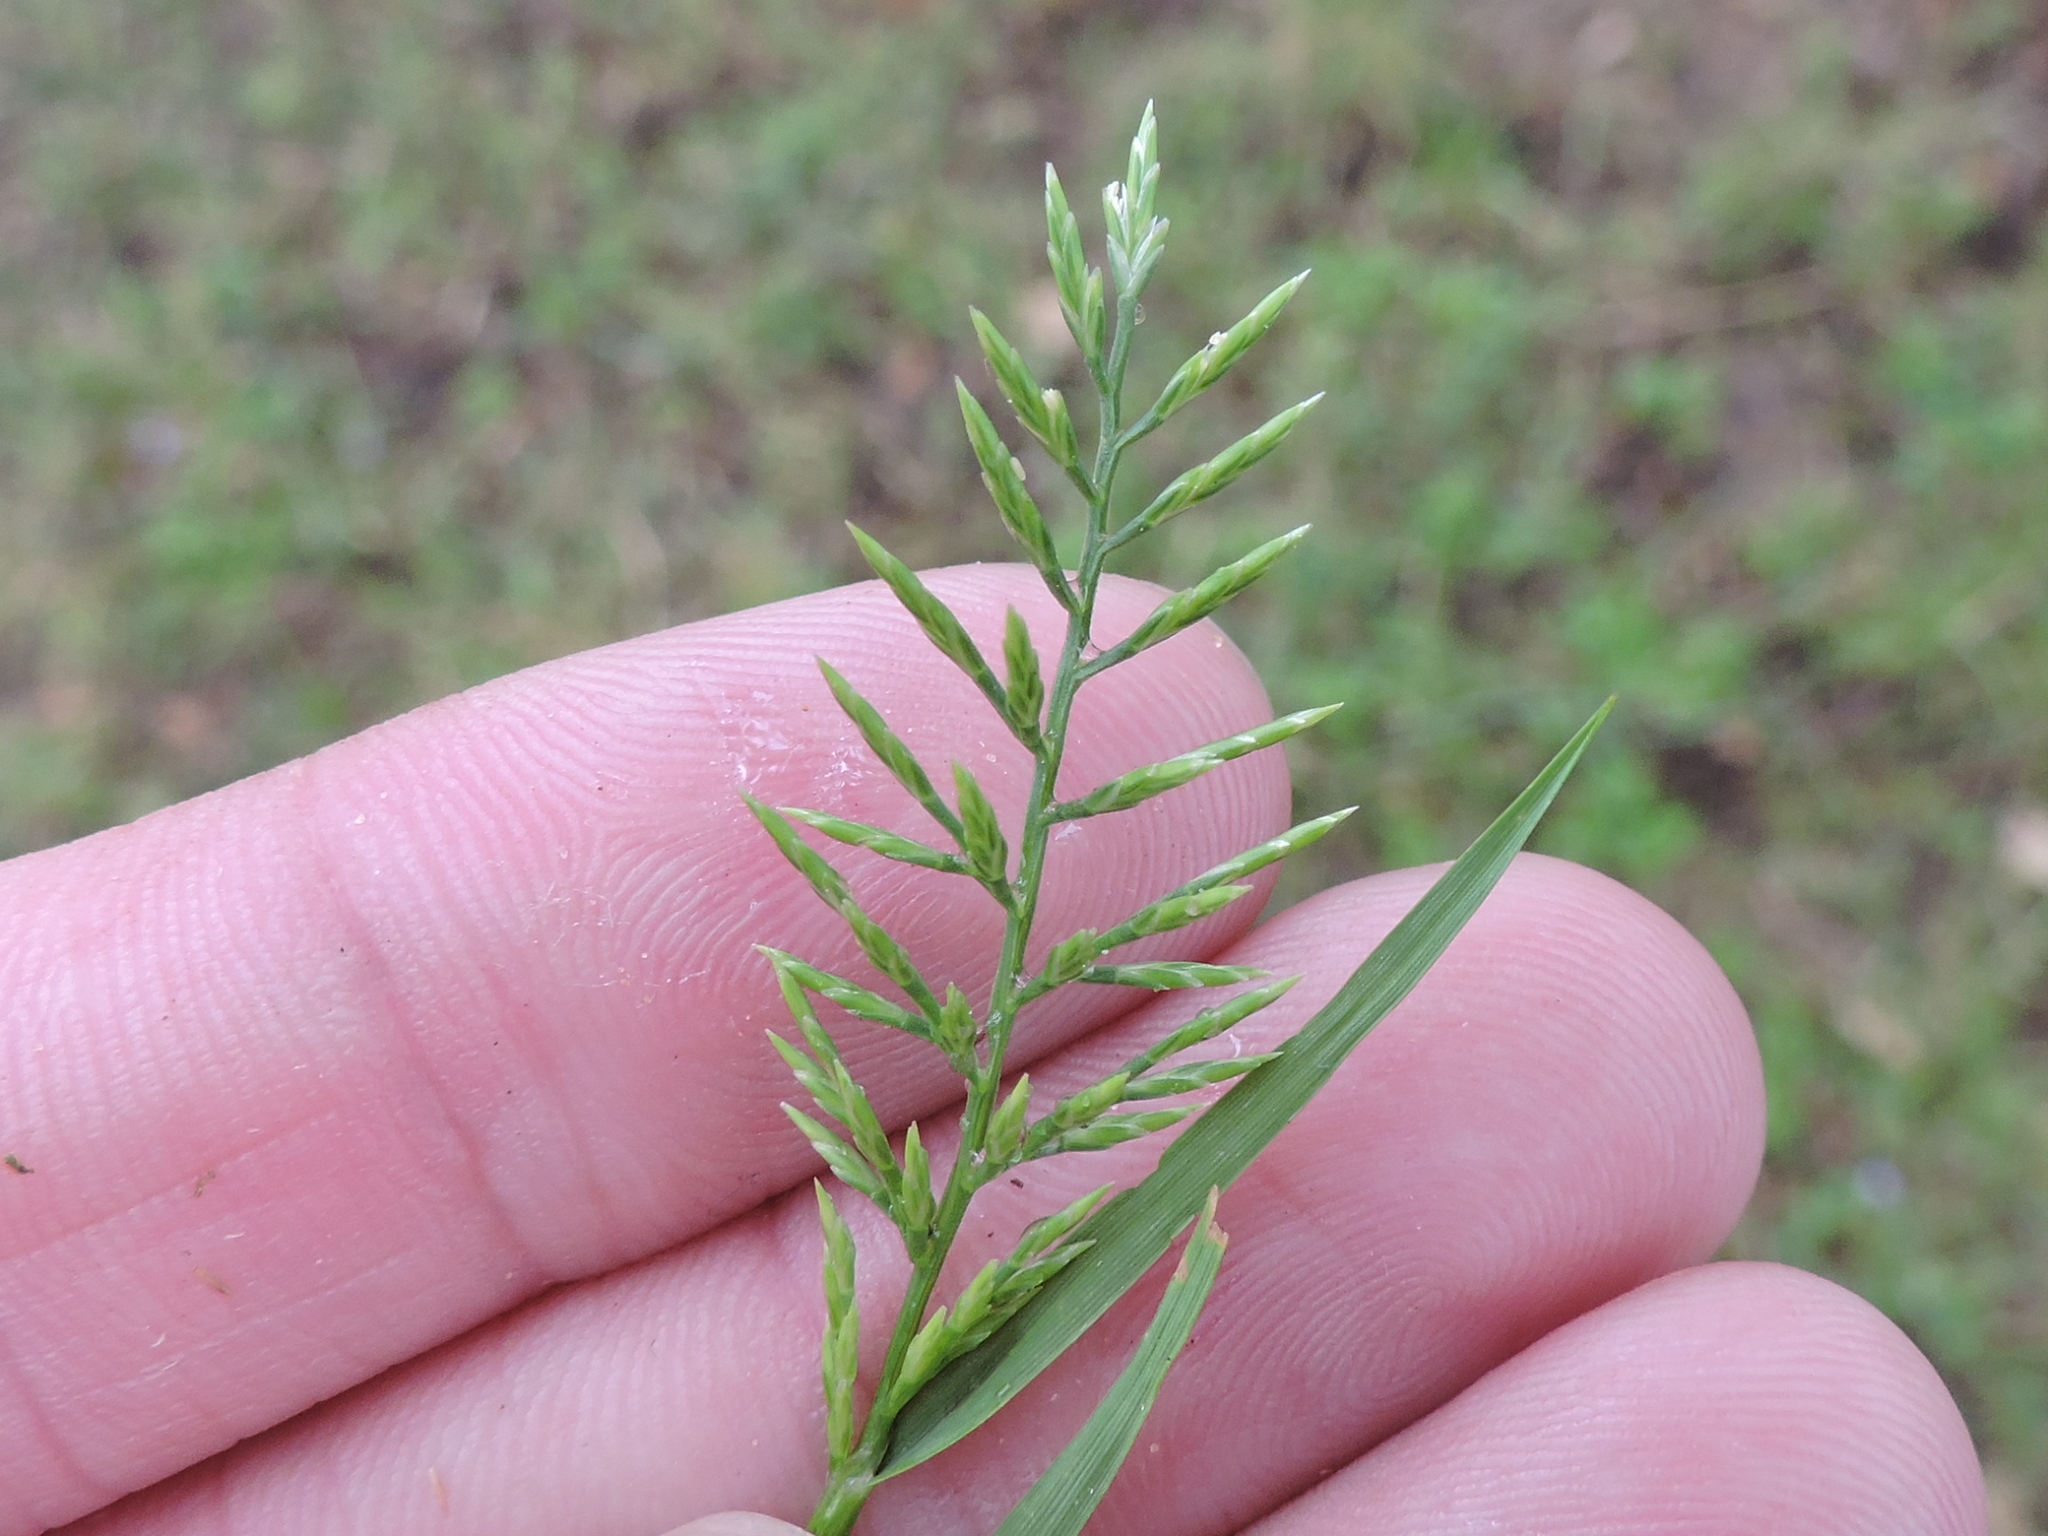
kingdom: Plantae
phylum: Tracheophyta
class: Liliopsida
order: Poales
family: Poaceae
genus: Catapodium
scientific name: Catapodium rigidum
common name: Fern-grass
